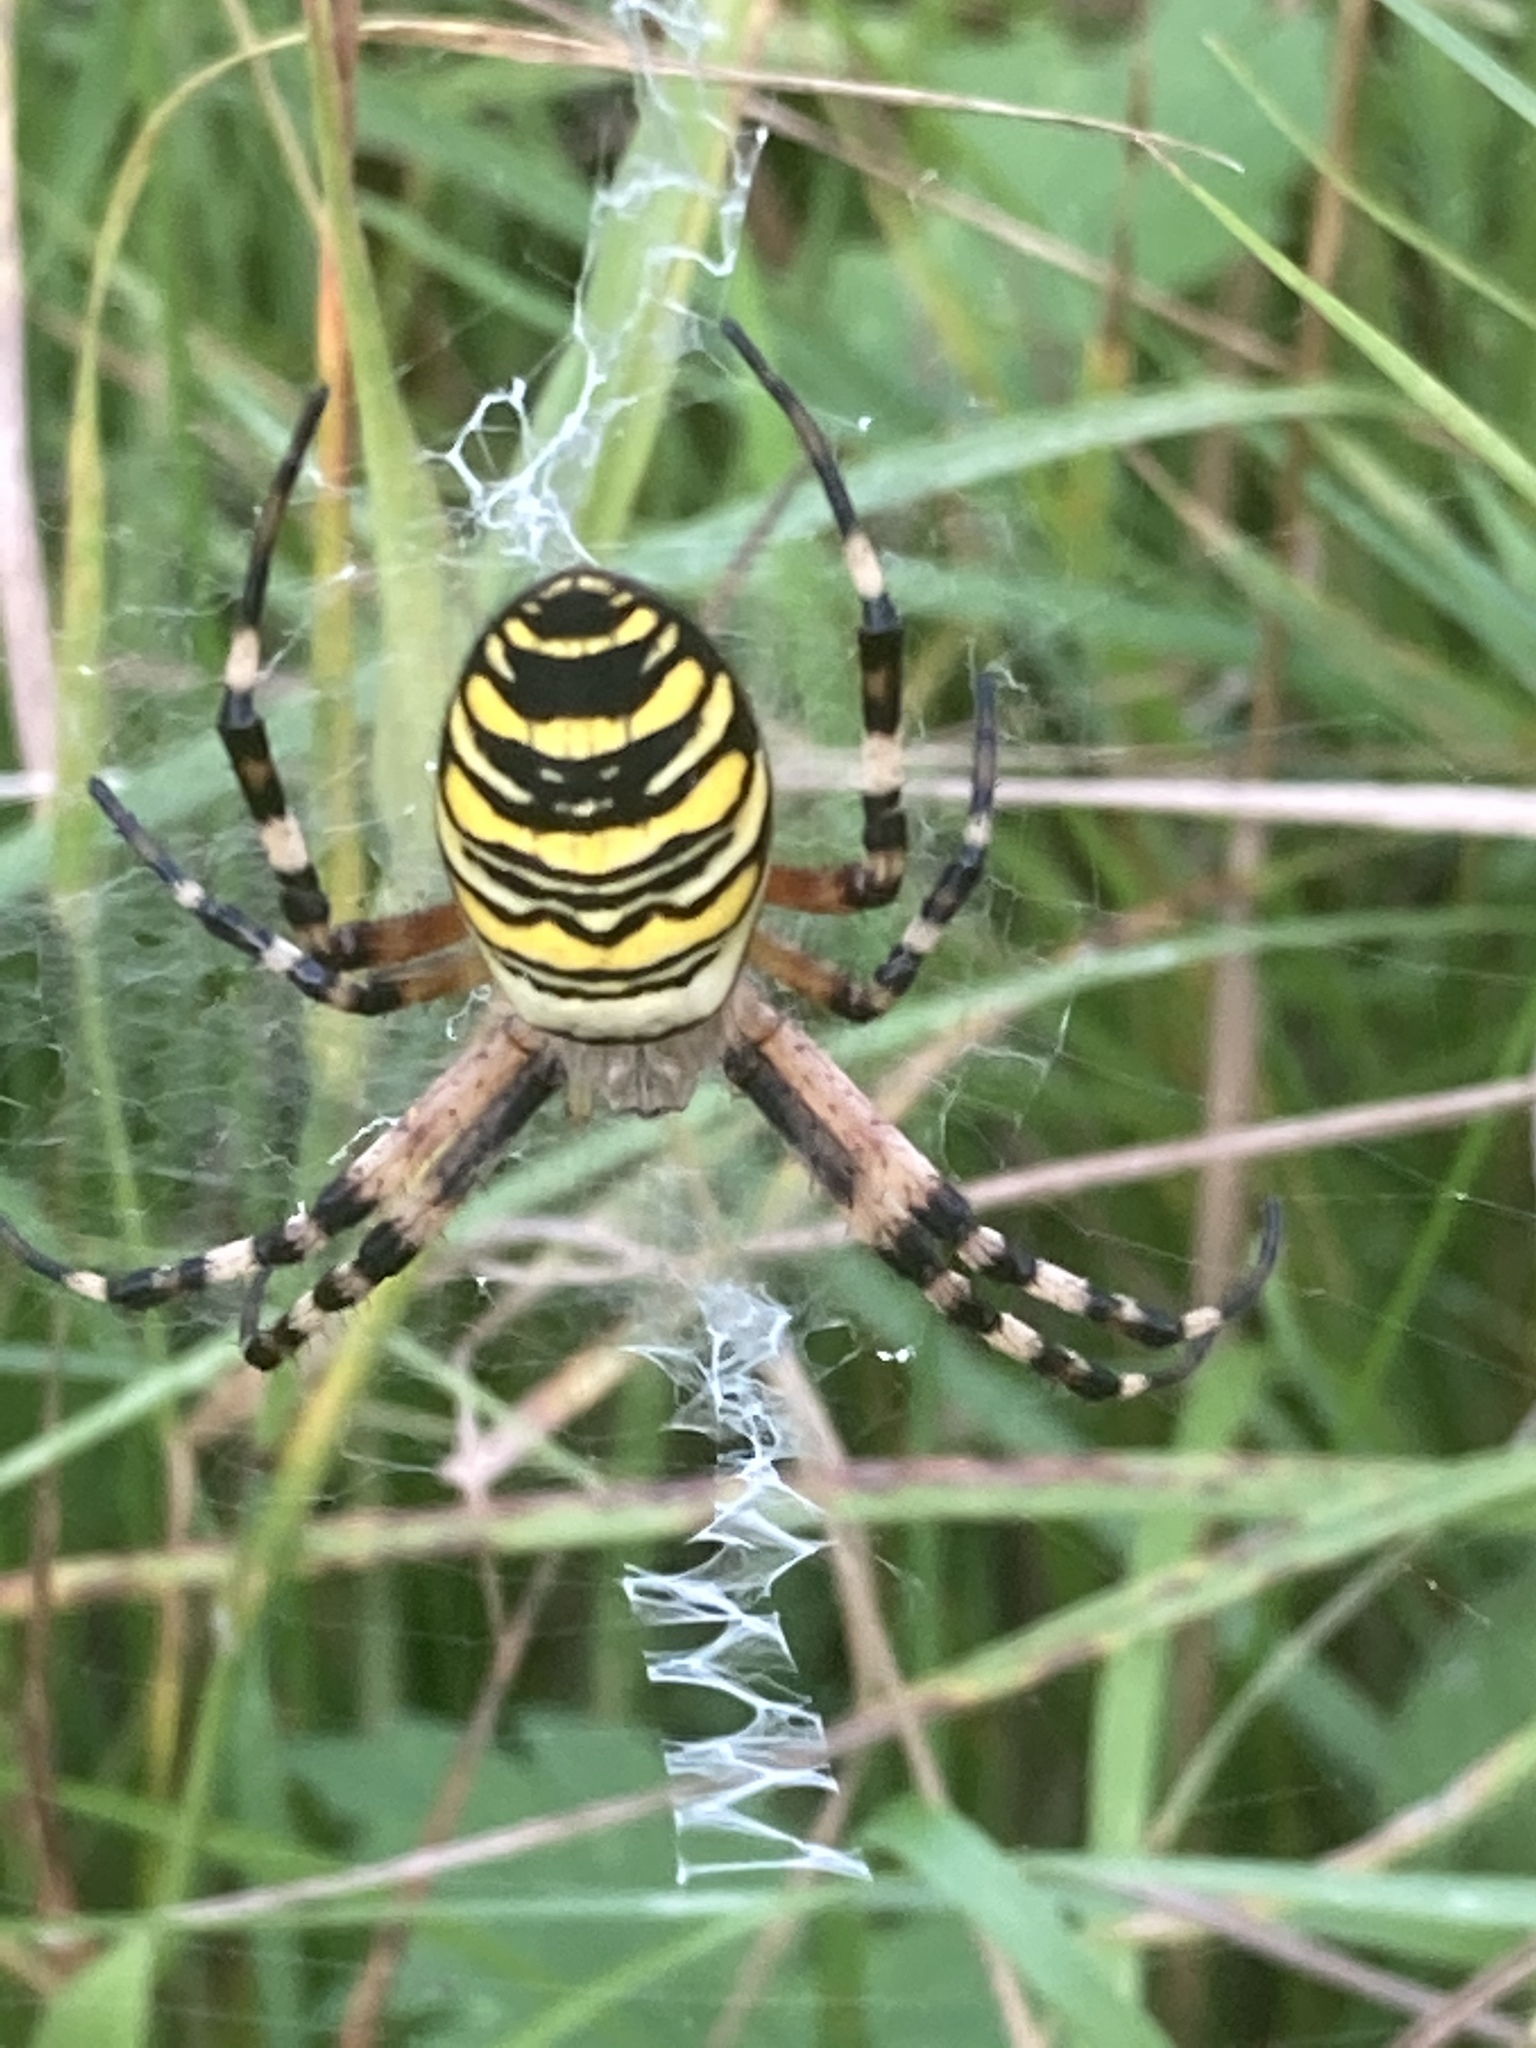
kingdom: Animalia
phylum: Arthropoda
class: Arachnida
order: Araneae
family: Araneidae
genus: Argiope
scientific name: Argiope bruennichi
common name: Wasp spider
